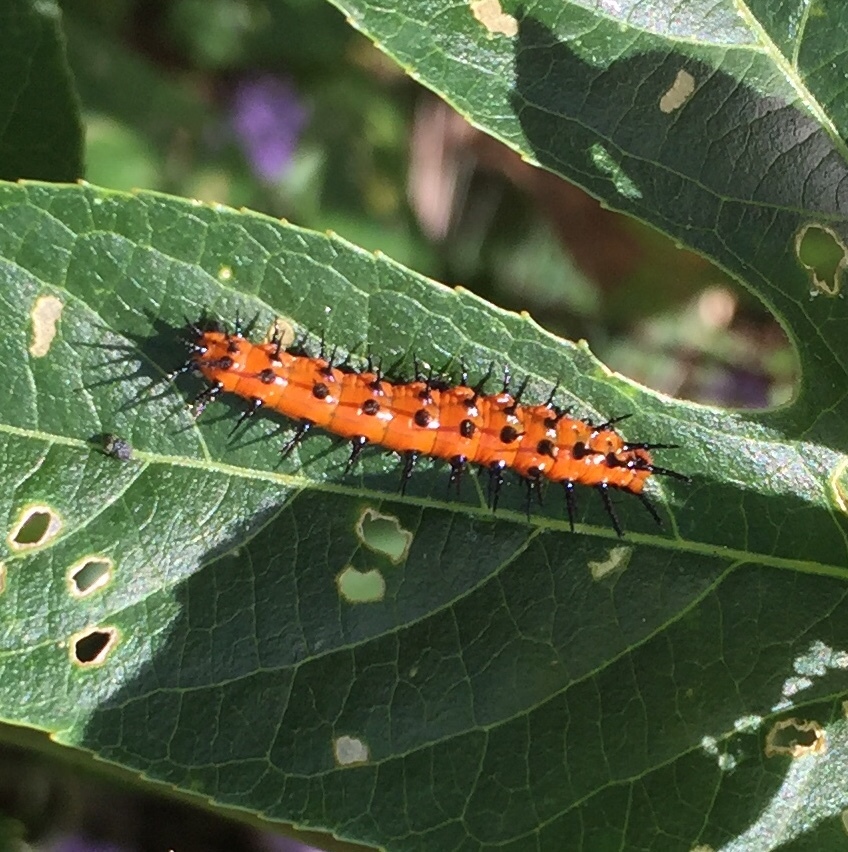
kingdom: Animalia
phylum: Arthropoda
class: Insecta
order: Lepidoptera
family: Nymphalidae
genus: Dione
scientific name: Dione vanillae
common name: Gulf fritillary
